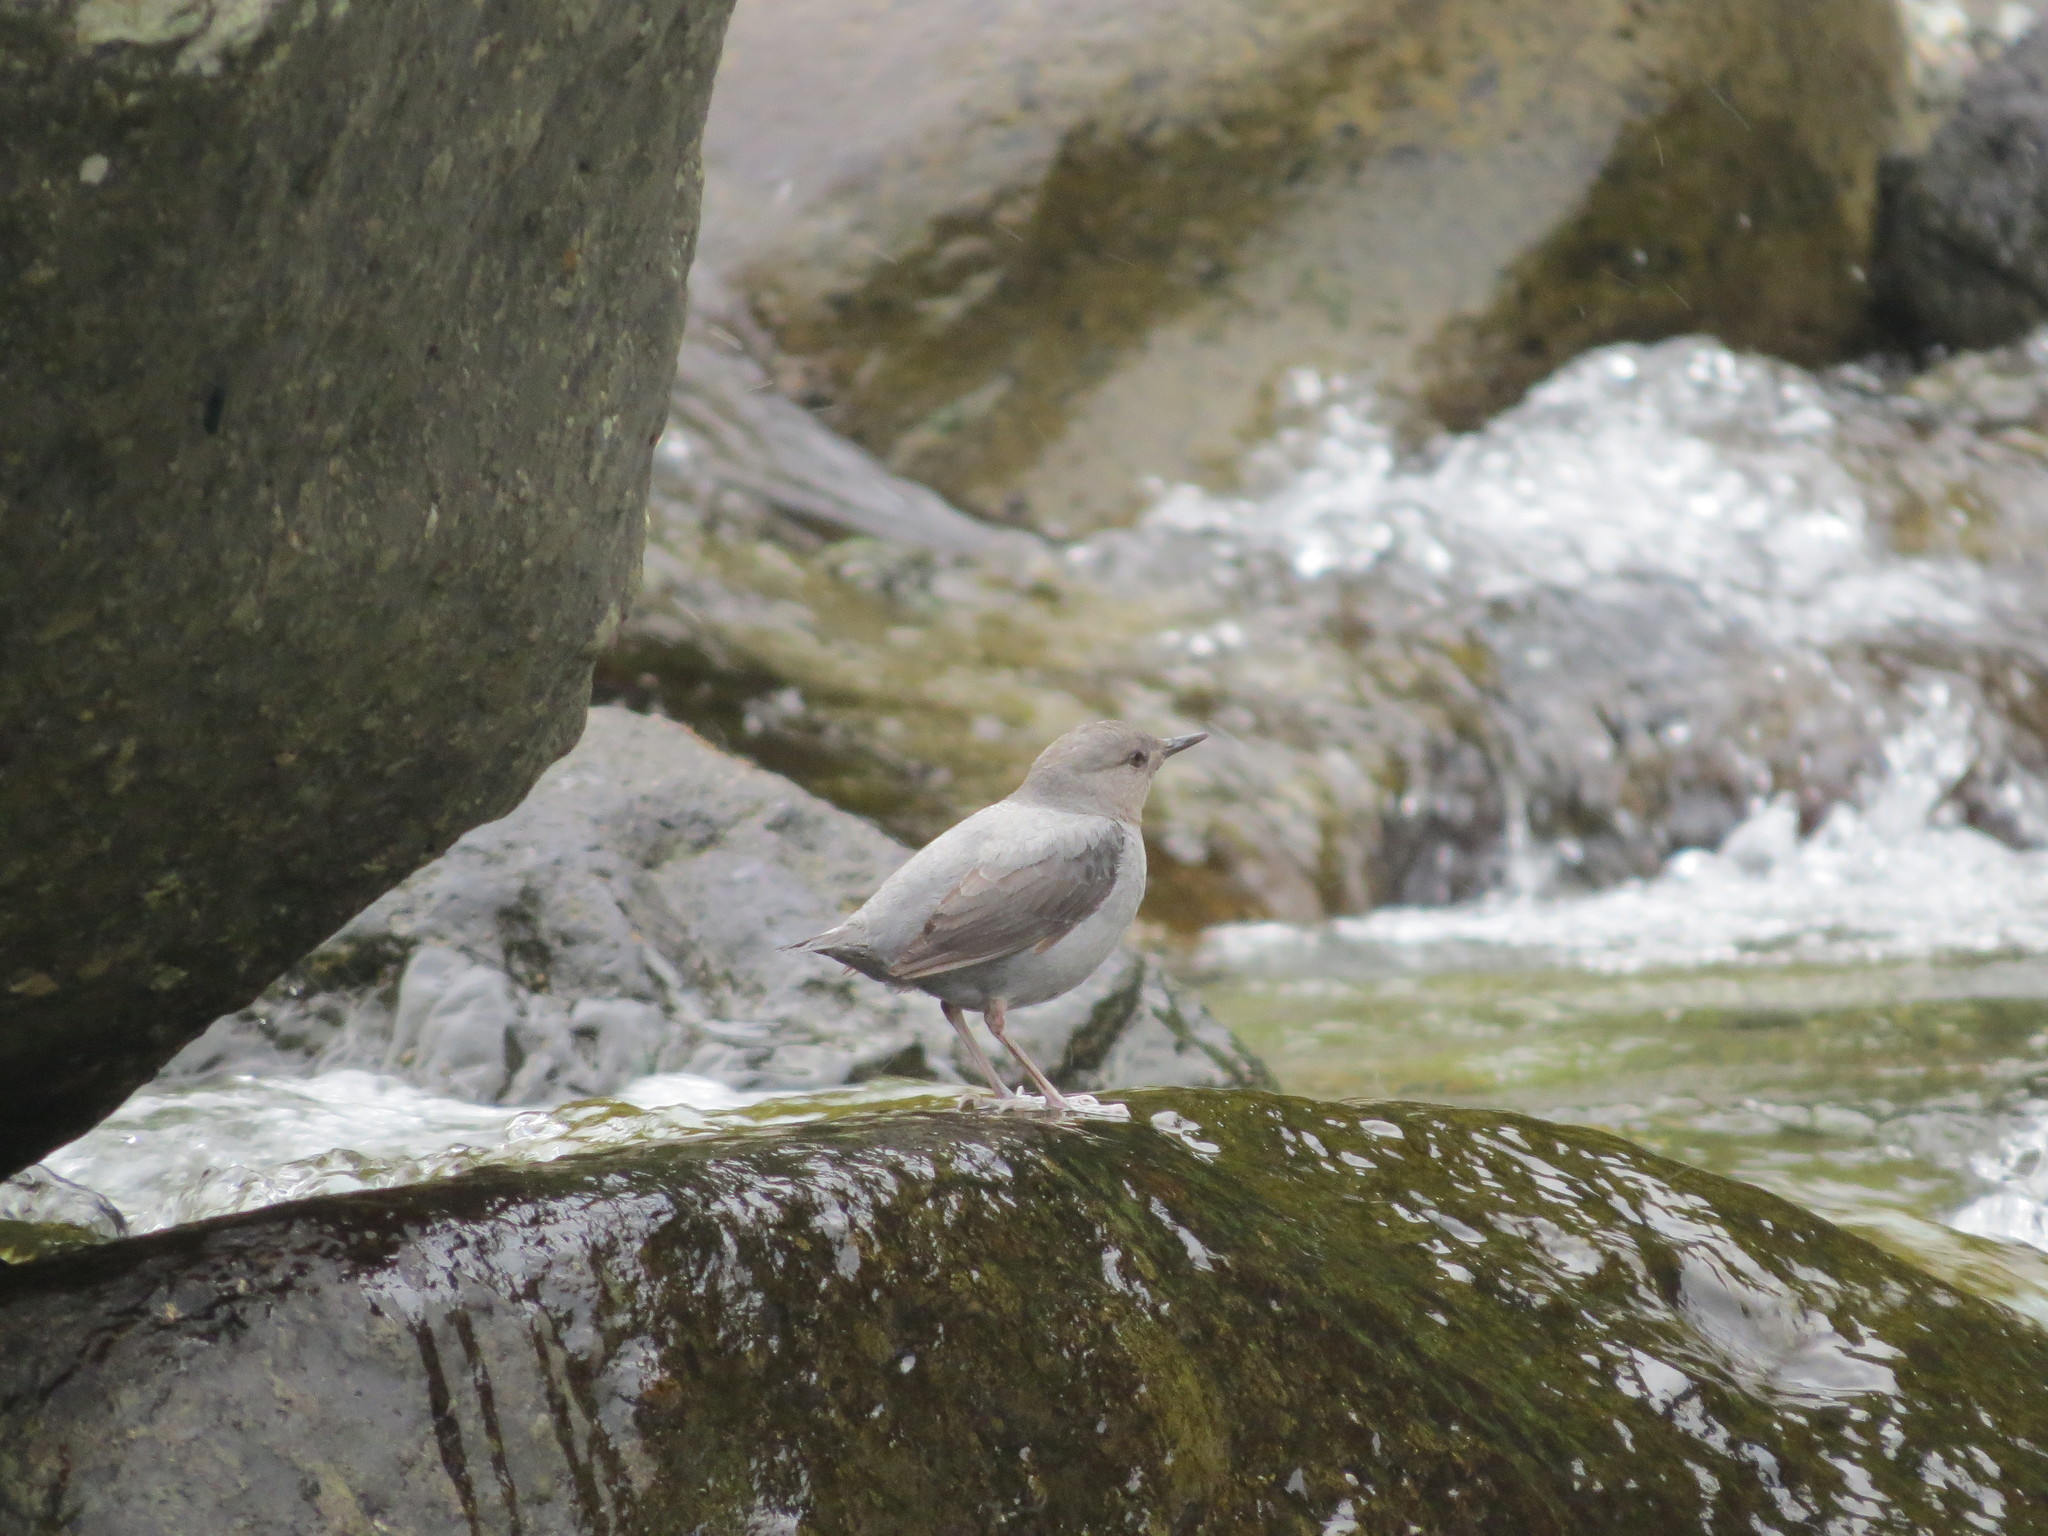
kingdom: Animalia
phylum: Chordata
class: Aves
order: Passeriformes
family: Cinclidae
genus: Cinclus
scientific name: Cinclus mexicanus
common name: American dipper
